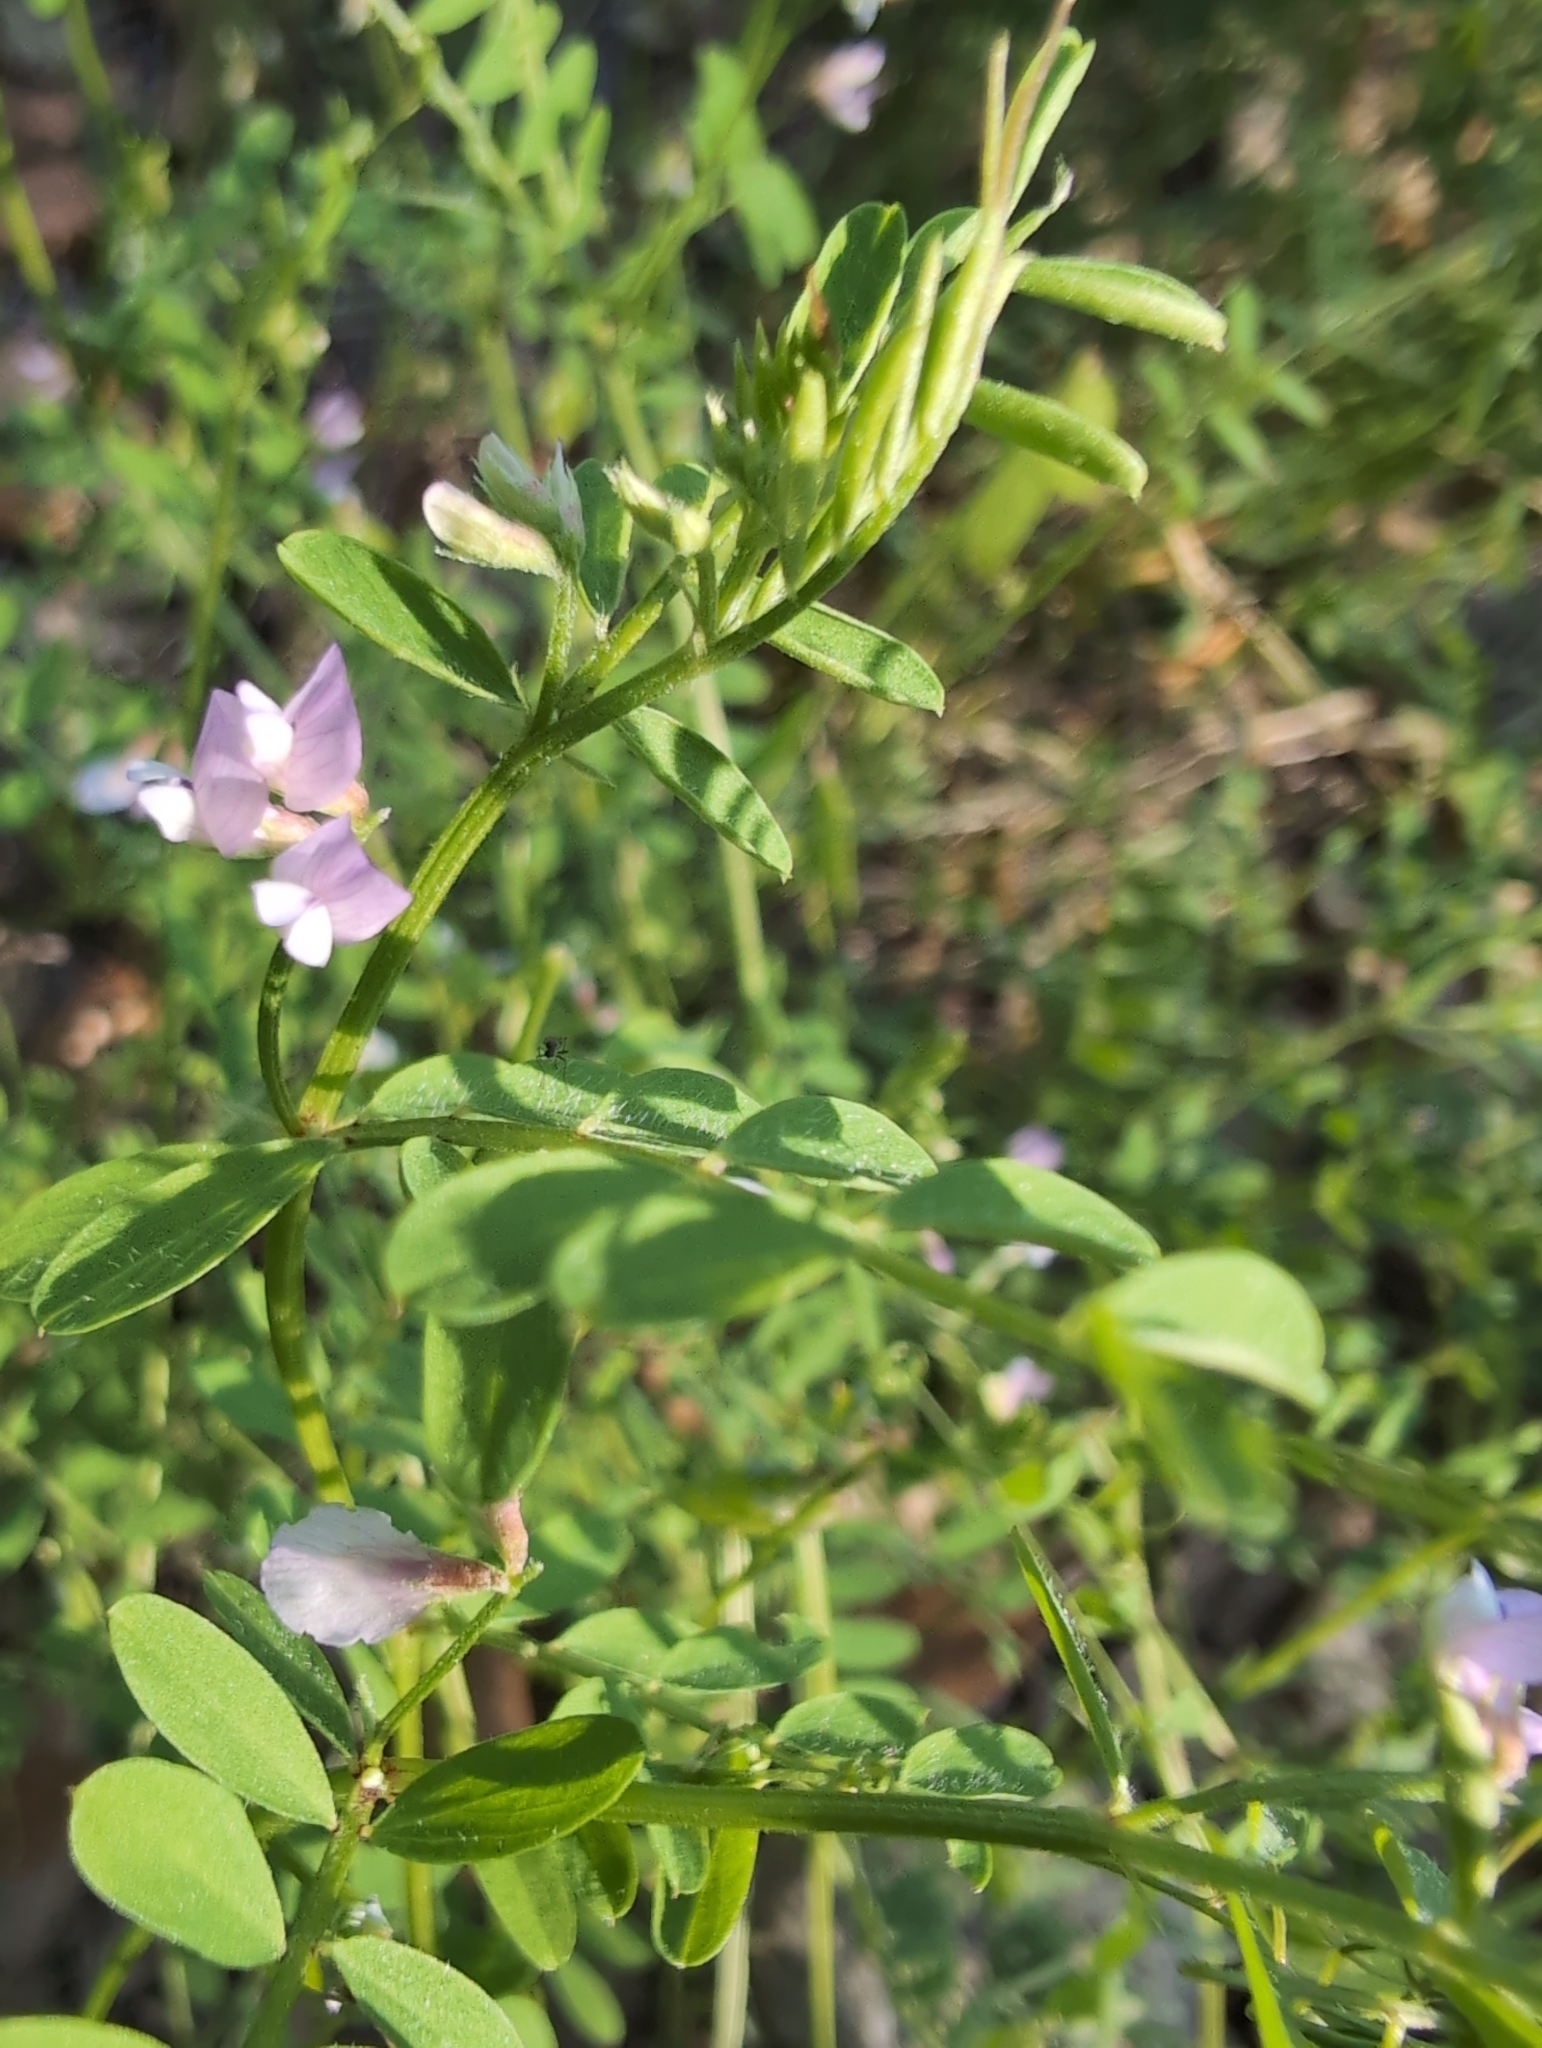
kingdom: Plantae
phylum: Tracheophyta
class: Magnoliopsida
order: Fabales
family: Fabaceae
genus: Vicia
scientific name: Vicia ludoviciana
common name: Louisiana vetch
